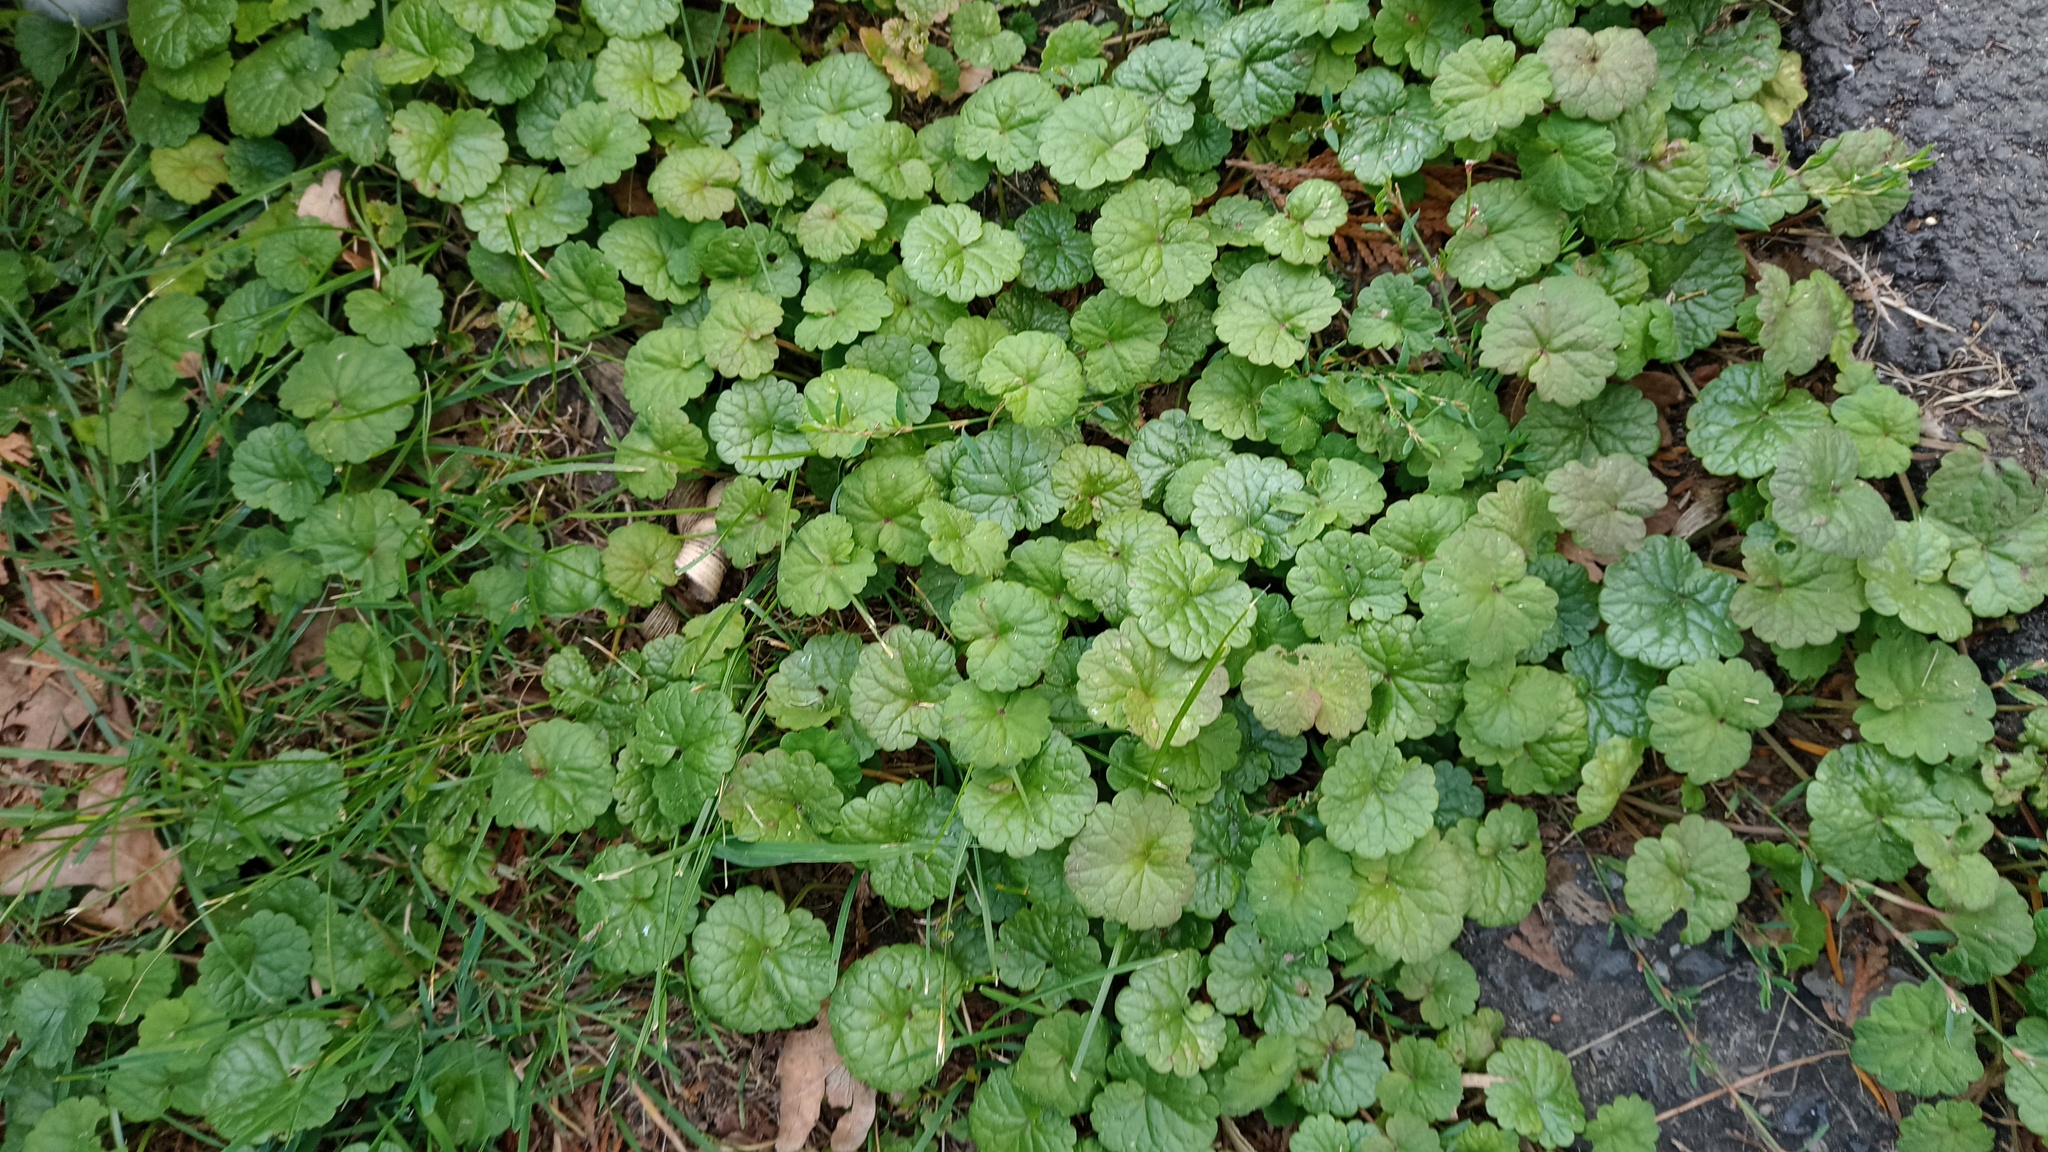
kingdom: Plantae
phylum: Tracheophyta
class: Magnoliopsida
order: Lamiales
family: Lamiaceae
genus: Glechoma
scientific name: Glechoma hederacea
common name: Ground ivy
